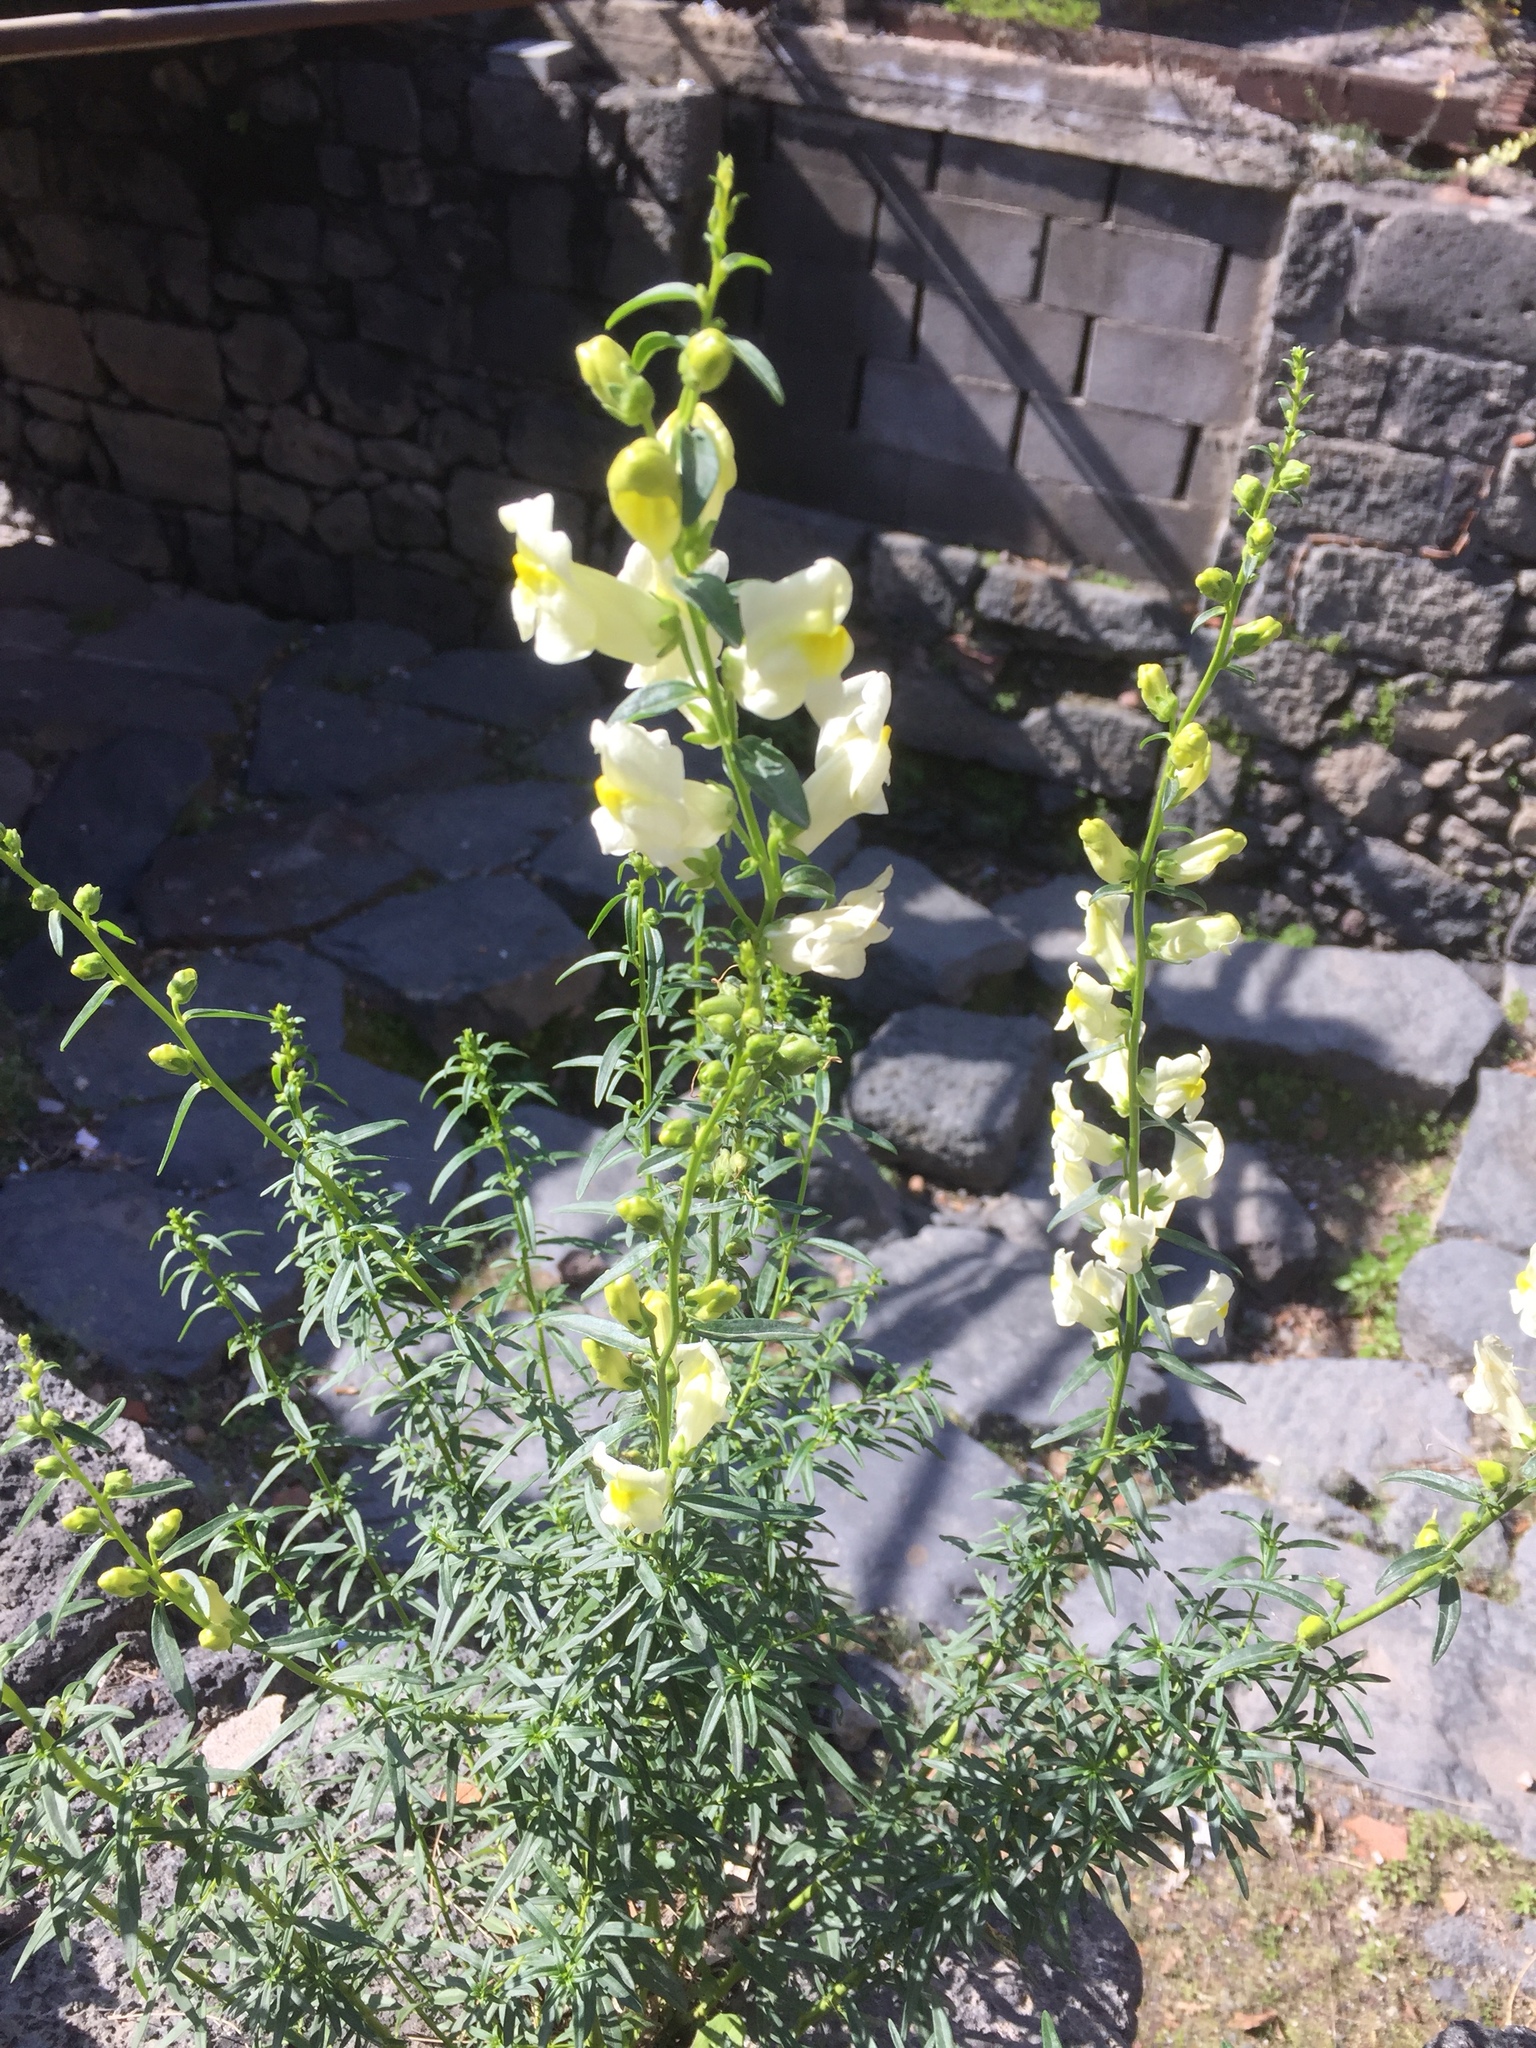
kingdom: Plantae
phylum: Tracheophyta
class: Magnoliopsida
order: Lamiales
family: Plantaginaceae
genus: Antirrhinum
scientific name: Antirrhinum siculum
